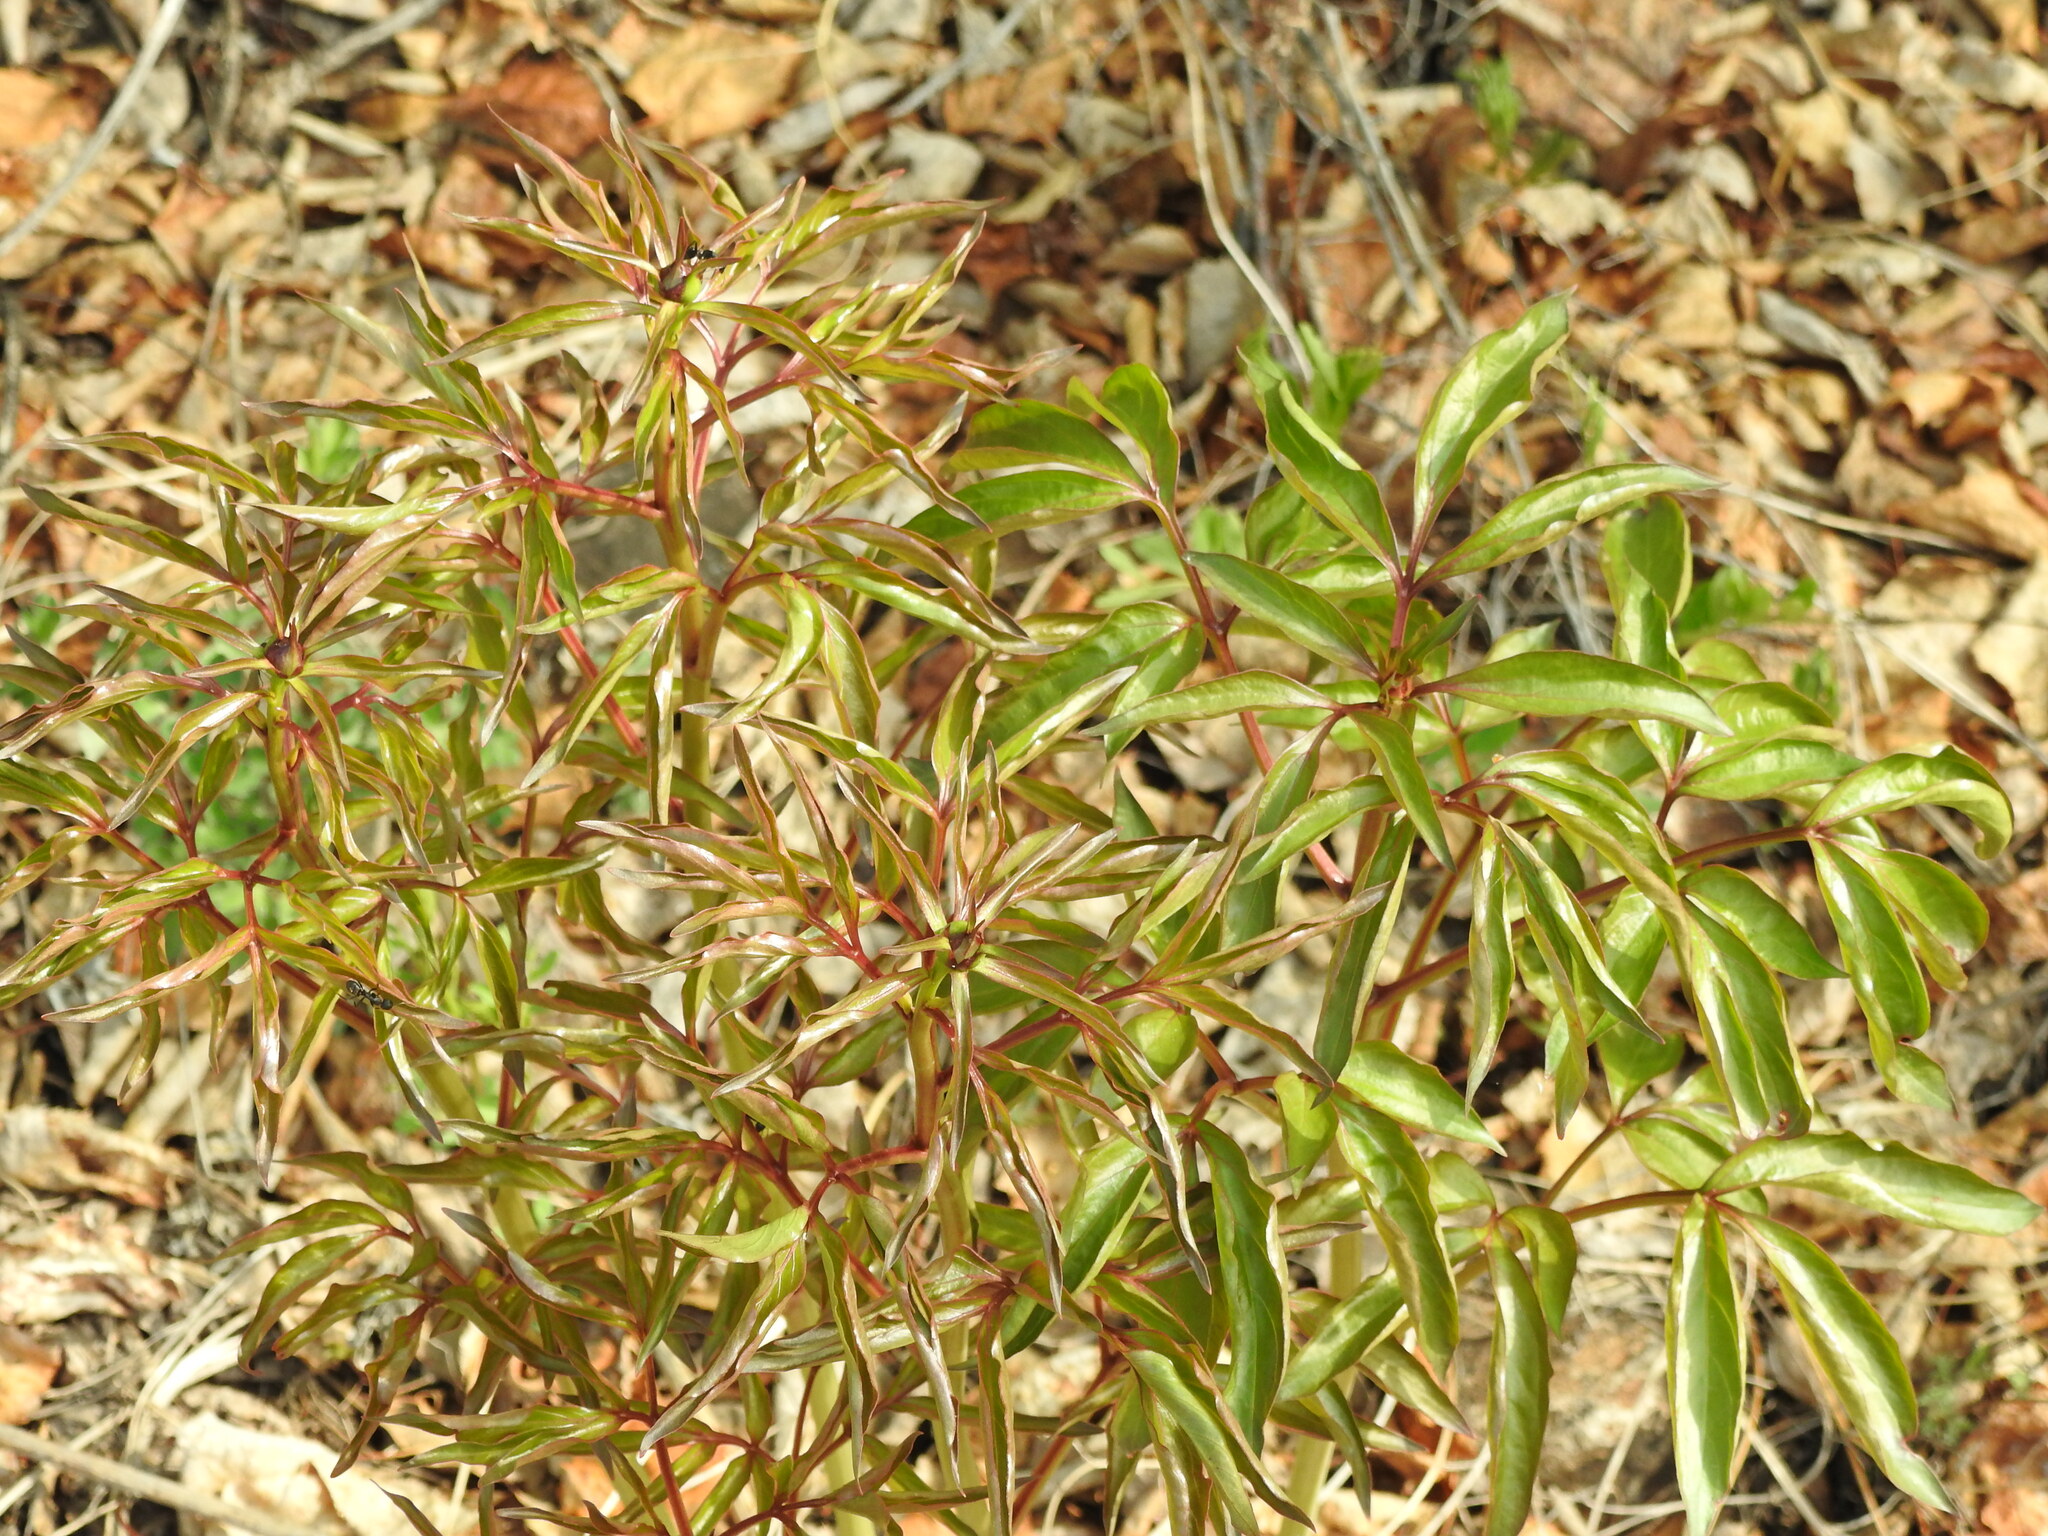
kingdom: Plantae
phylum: Tracheophyta
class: Magnoliopsida
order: Saxifragales
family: Paeoniaceae
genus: Paeonia
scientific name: Paeonia lactiflora
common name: Chinese peony
